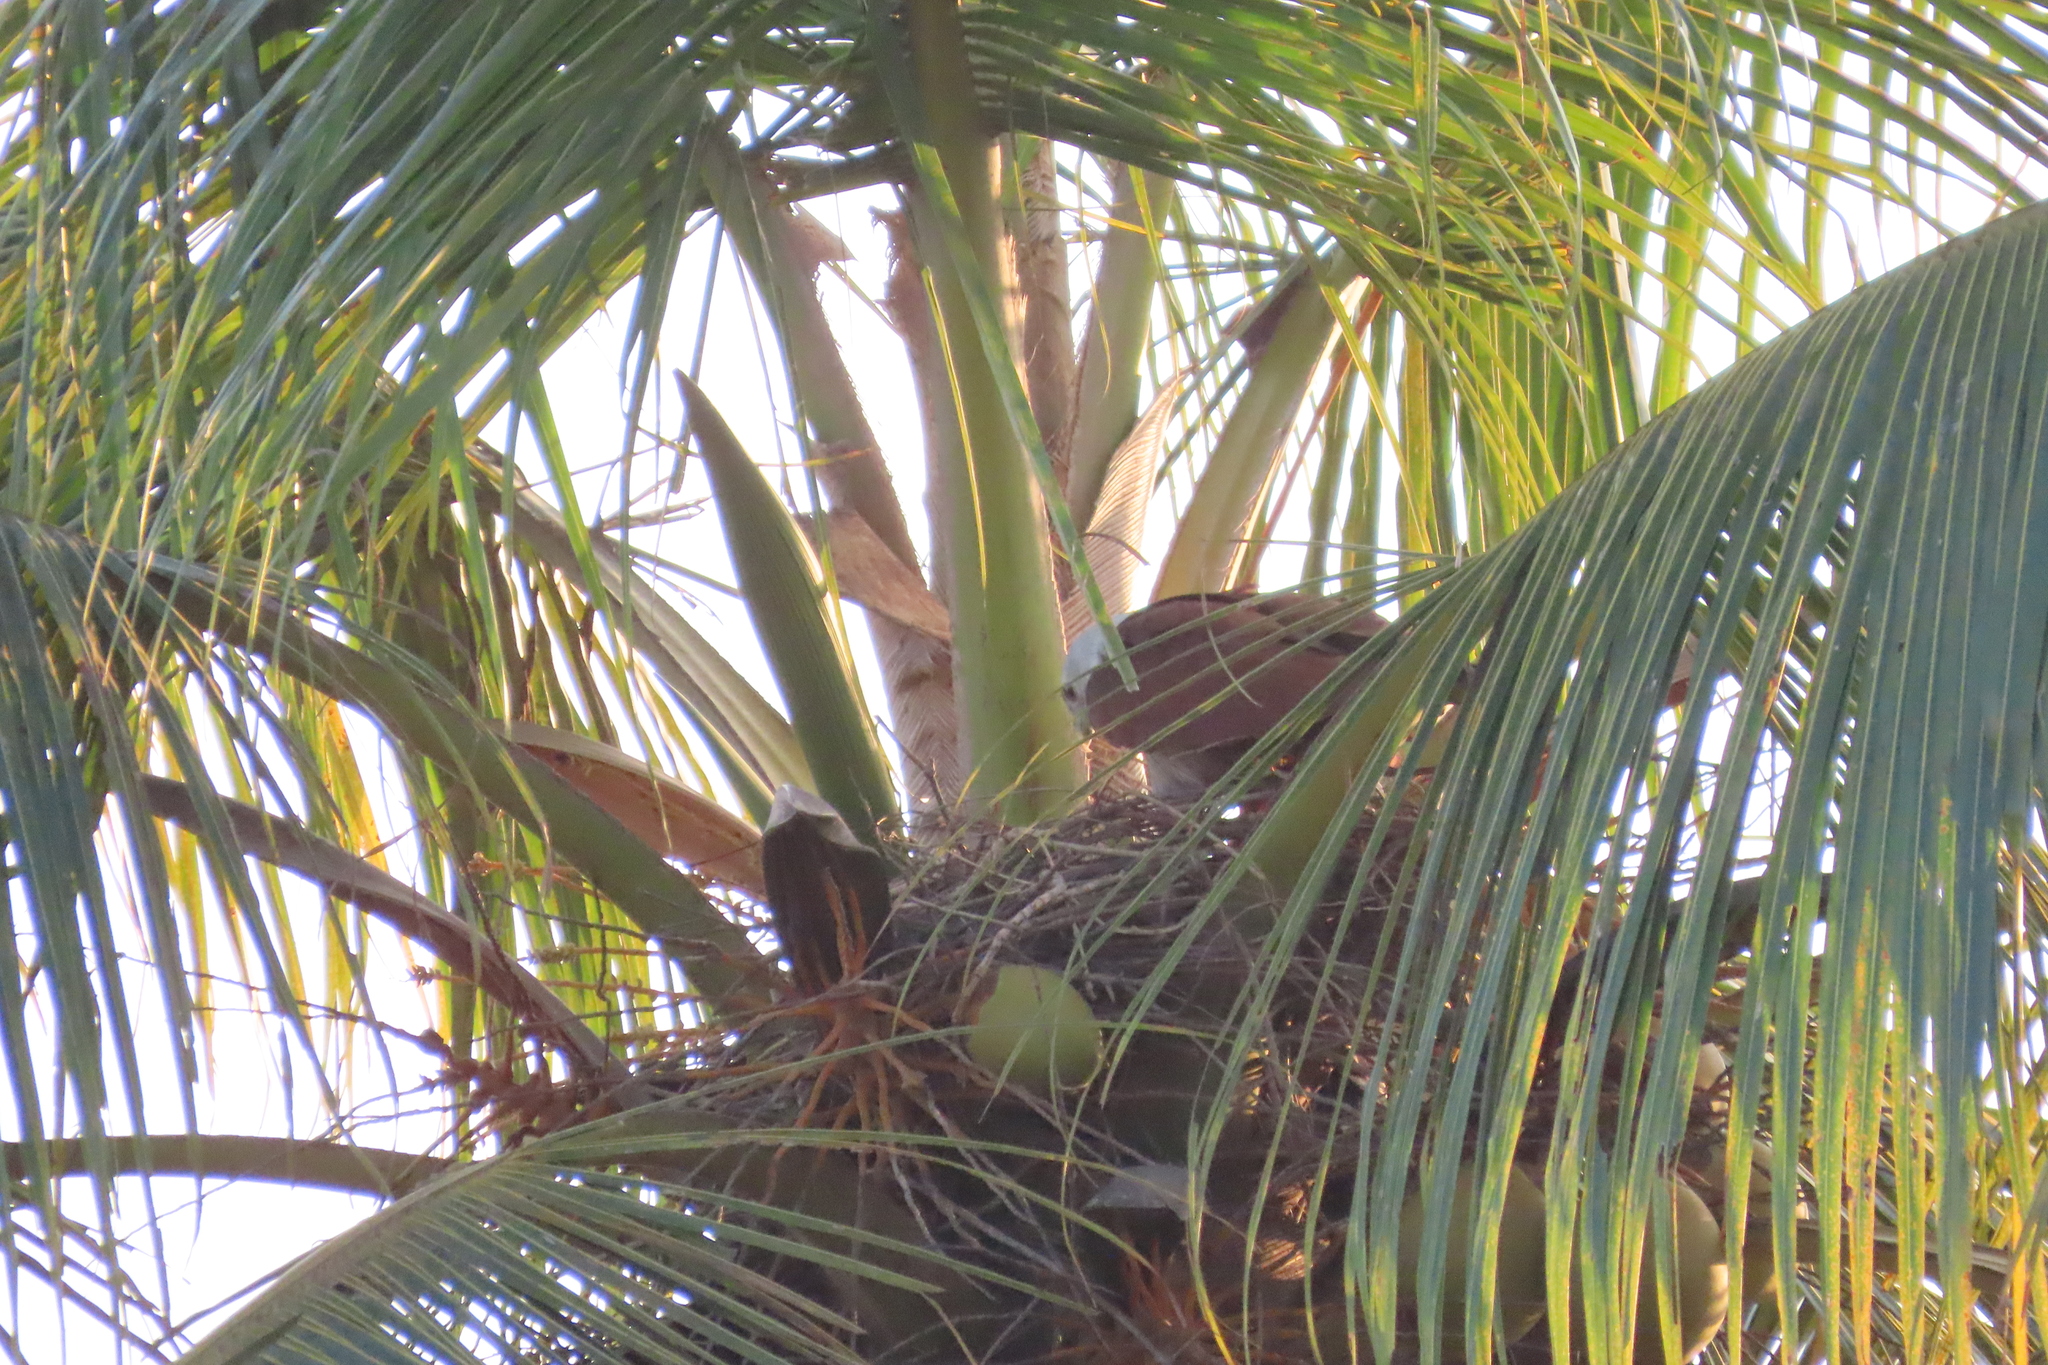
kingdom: Animalia
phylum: Chordata
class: Aves
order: Accipitriformes
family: Accipitridae
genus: Haliastur
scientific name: Haliastur indus
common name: Brahminy kite
